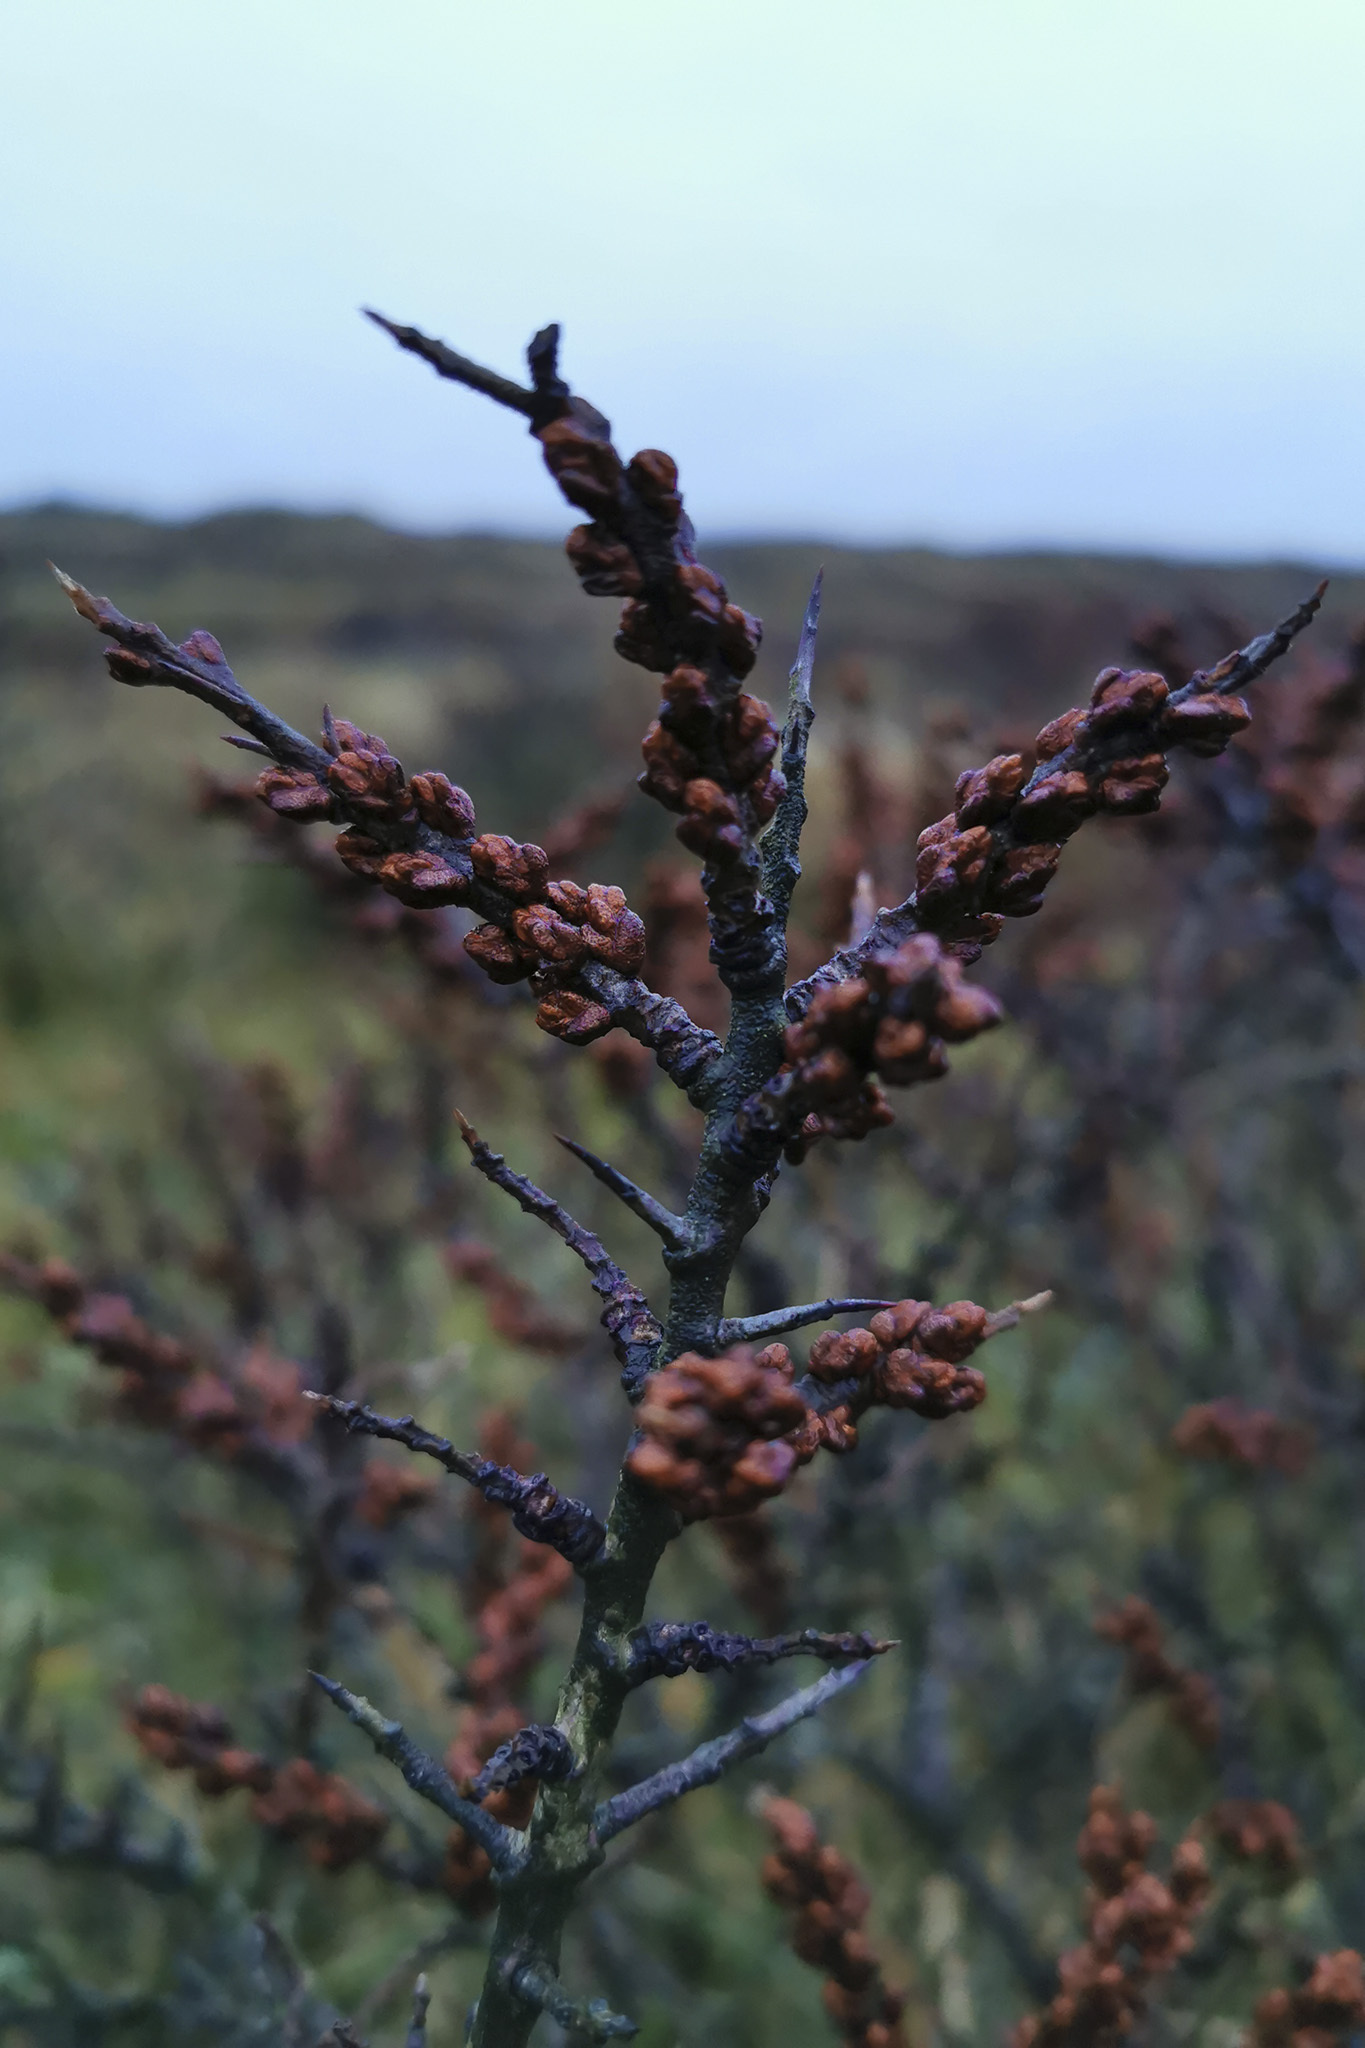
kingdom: Plantae
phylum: Tracheophyta
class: Magnoliopsida
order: Rosales
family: Elaeagnaceae
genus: Hippophae
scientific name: Hippophae rhamnoides
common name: Sea-buckthorn
